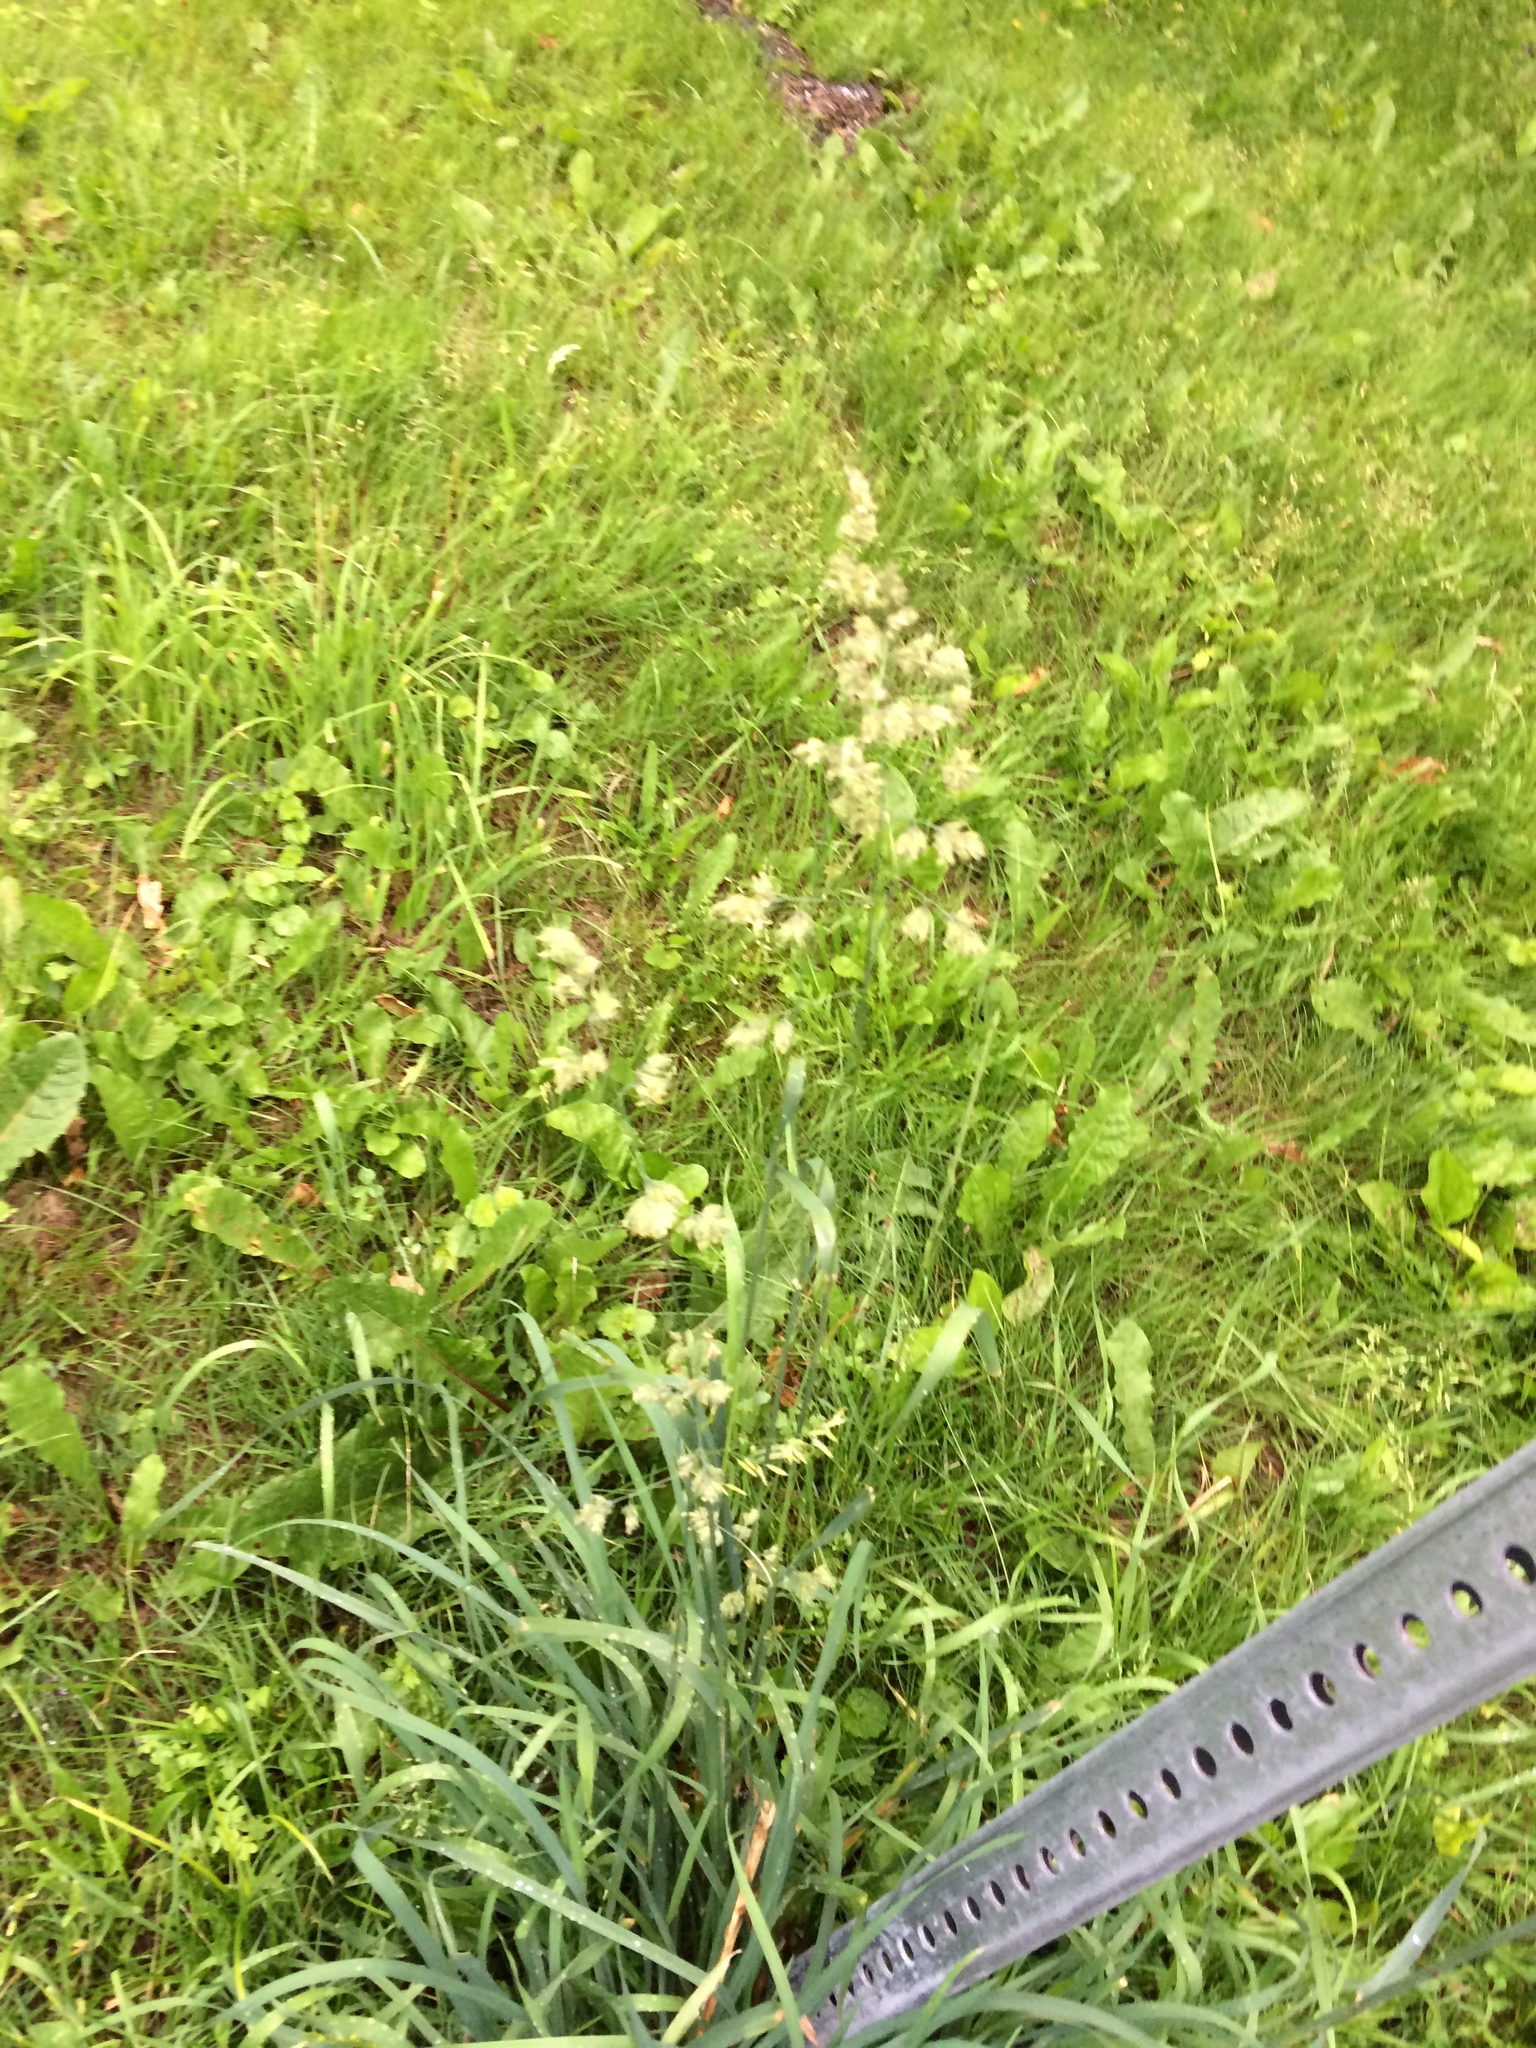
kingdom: Plantae
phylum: Tracheophyta
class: Liliopsida
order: Poales
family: Poaceae
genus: Dactylis
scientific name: Dactylis glomerata
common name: Orchardgrass
